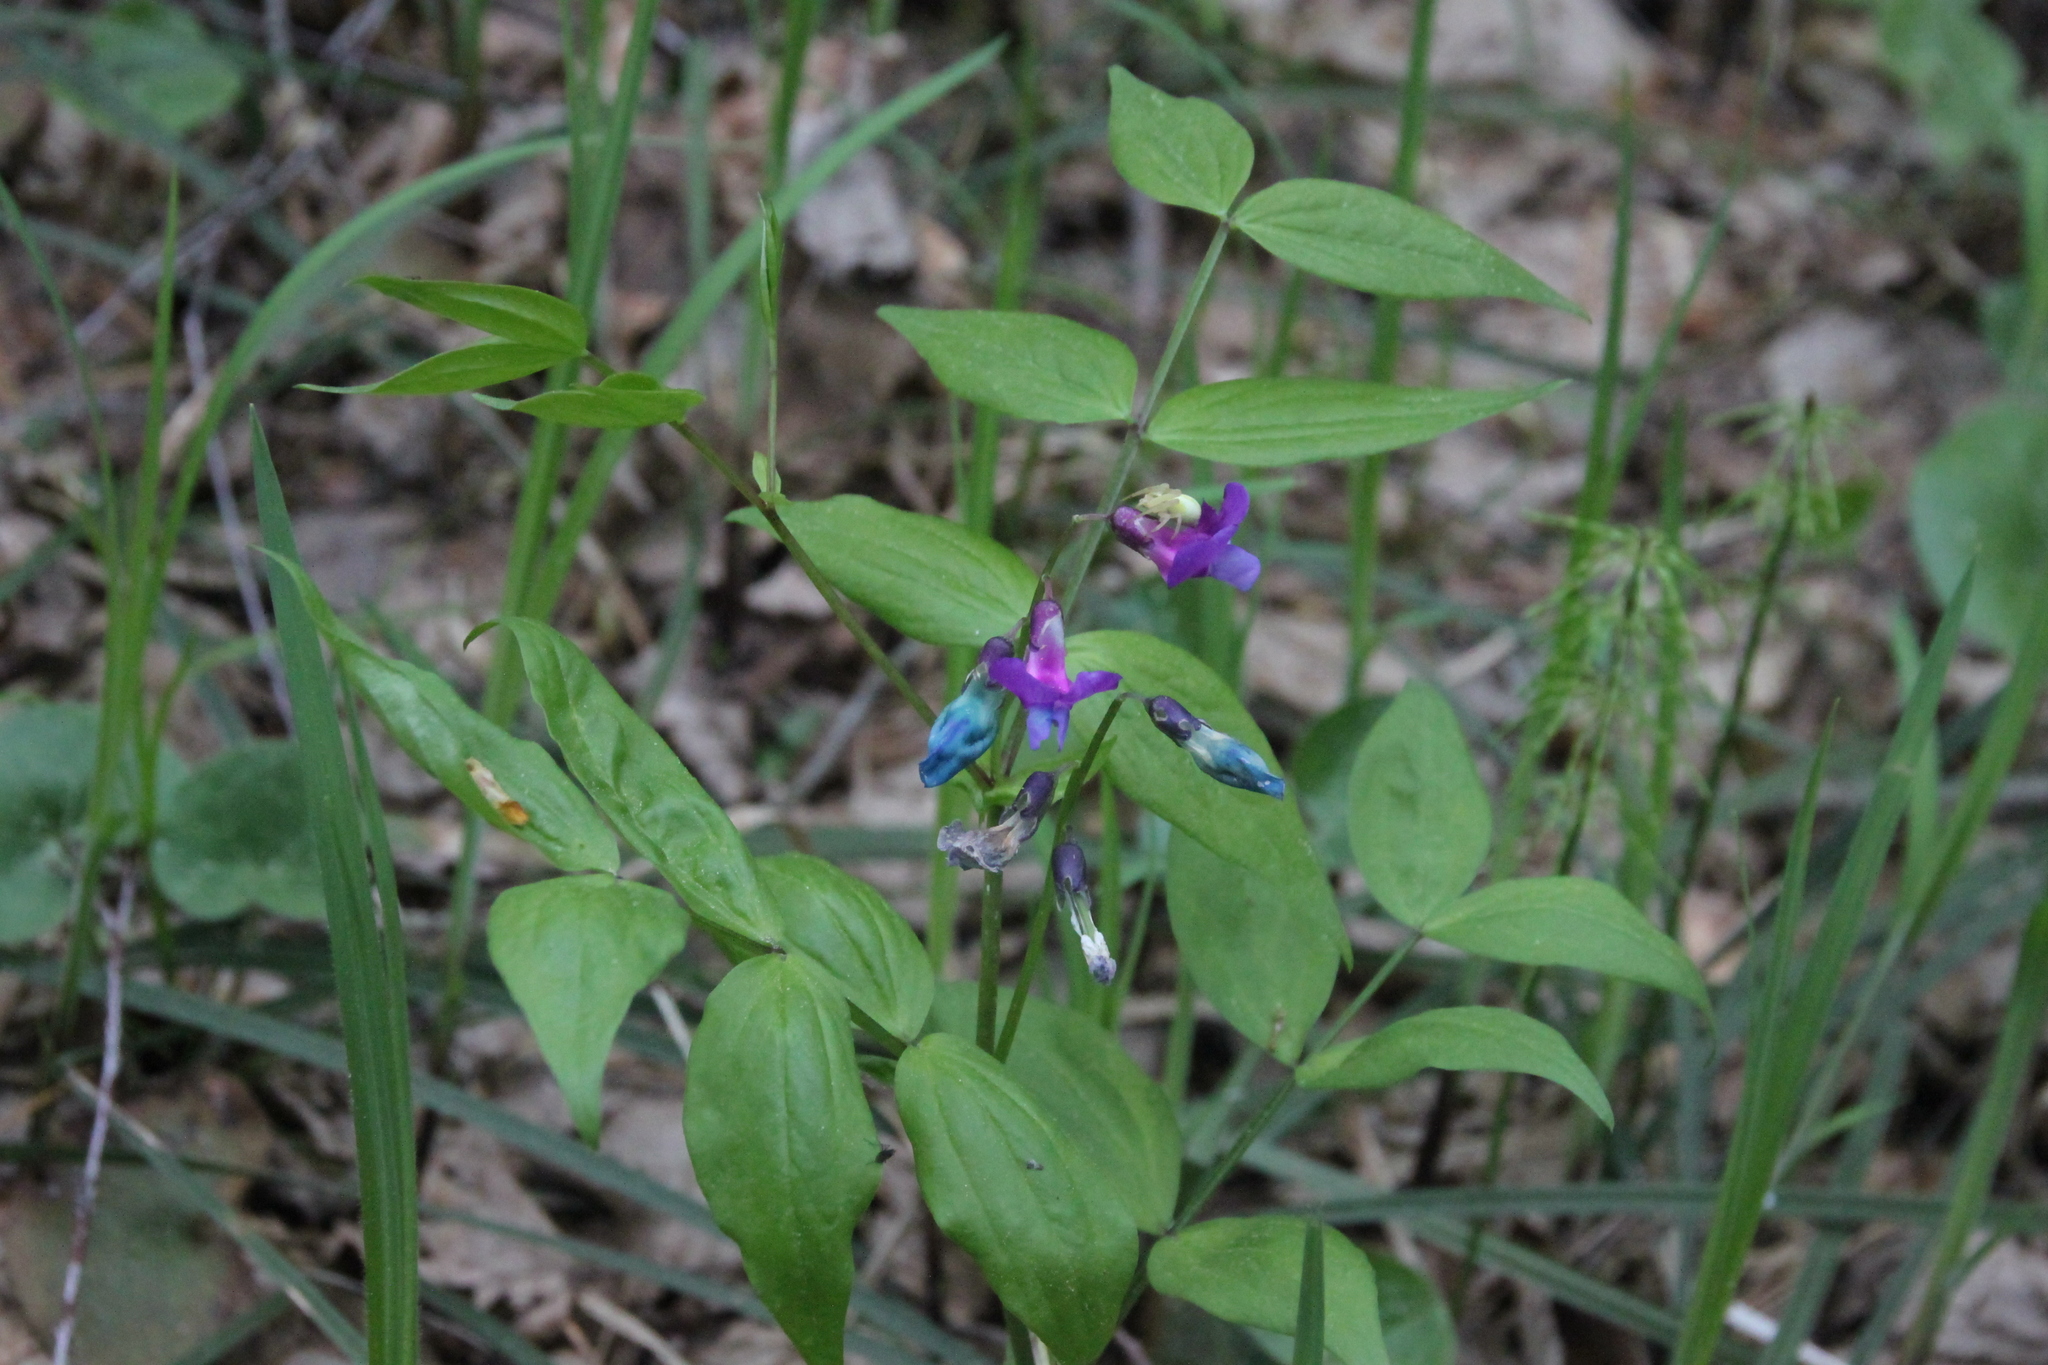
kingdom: Plantae
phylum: Tracheophyta
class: Magnoliopsida
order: Fabales
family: Fabaceae
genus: Lathyrus
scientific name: Lathyrus vernus
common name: Spring pea
